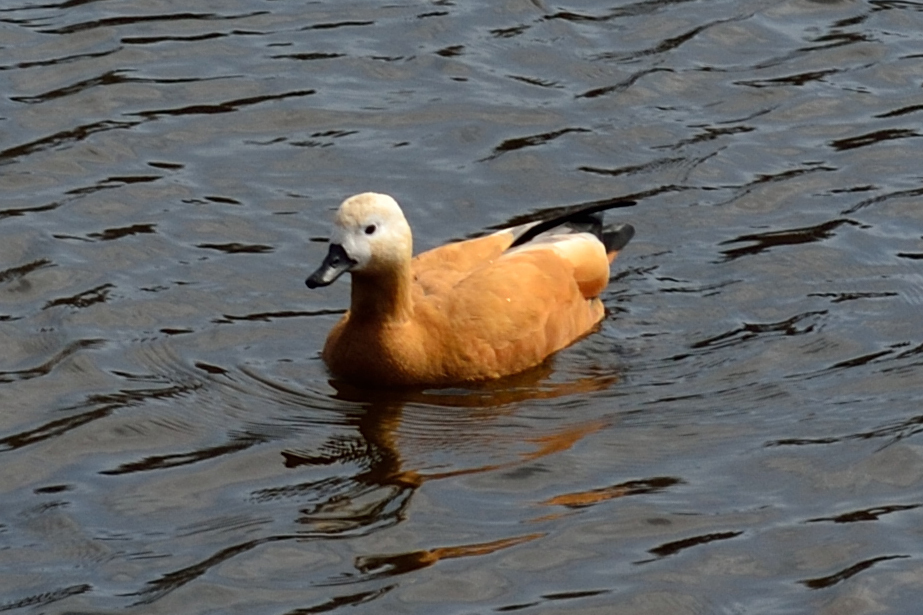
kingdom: Animalia
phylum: Chordata
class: Aves
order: Anseriformes
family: Anatidae
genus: Tadorna
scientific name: Tadorna ferruginea
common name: Ruddy shelduck
